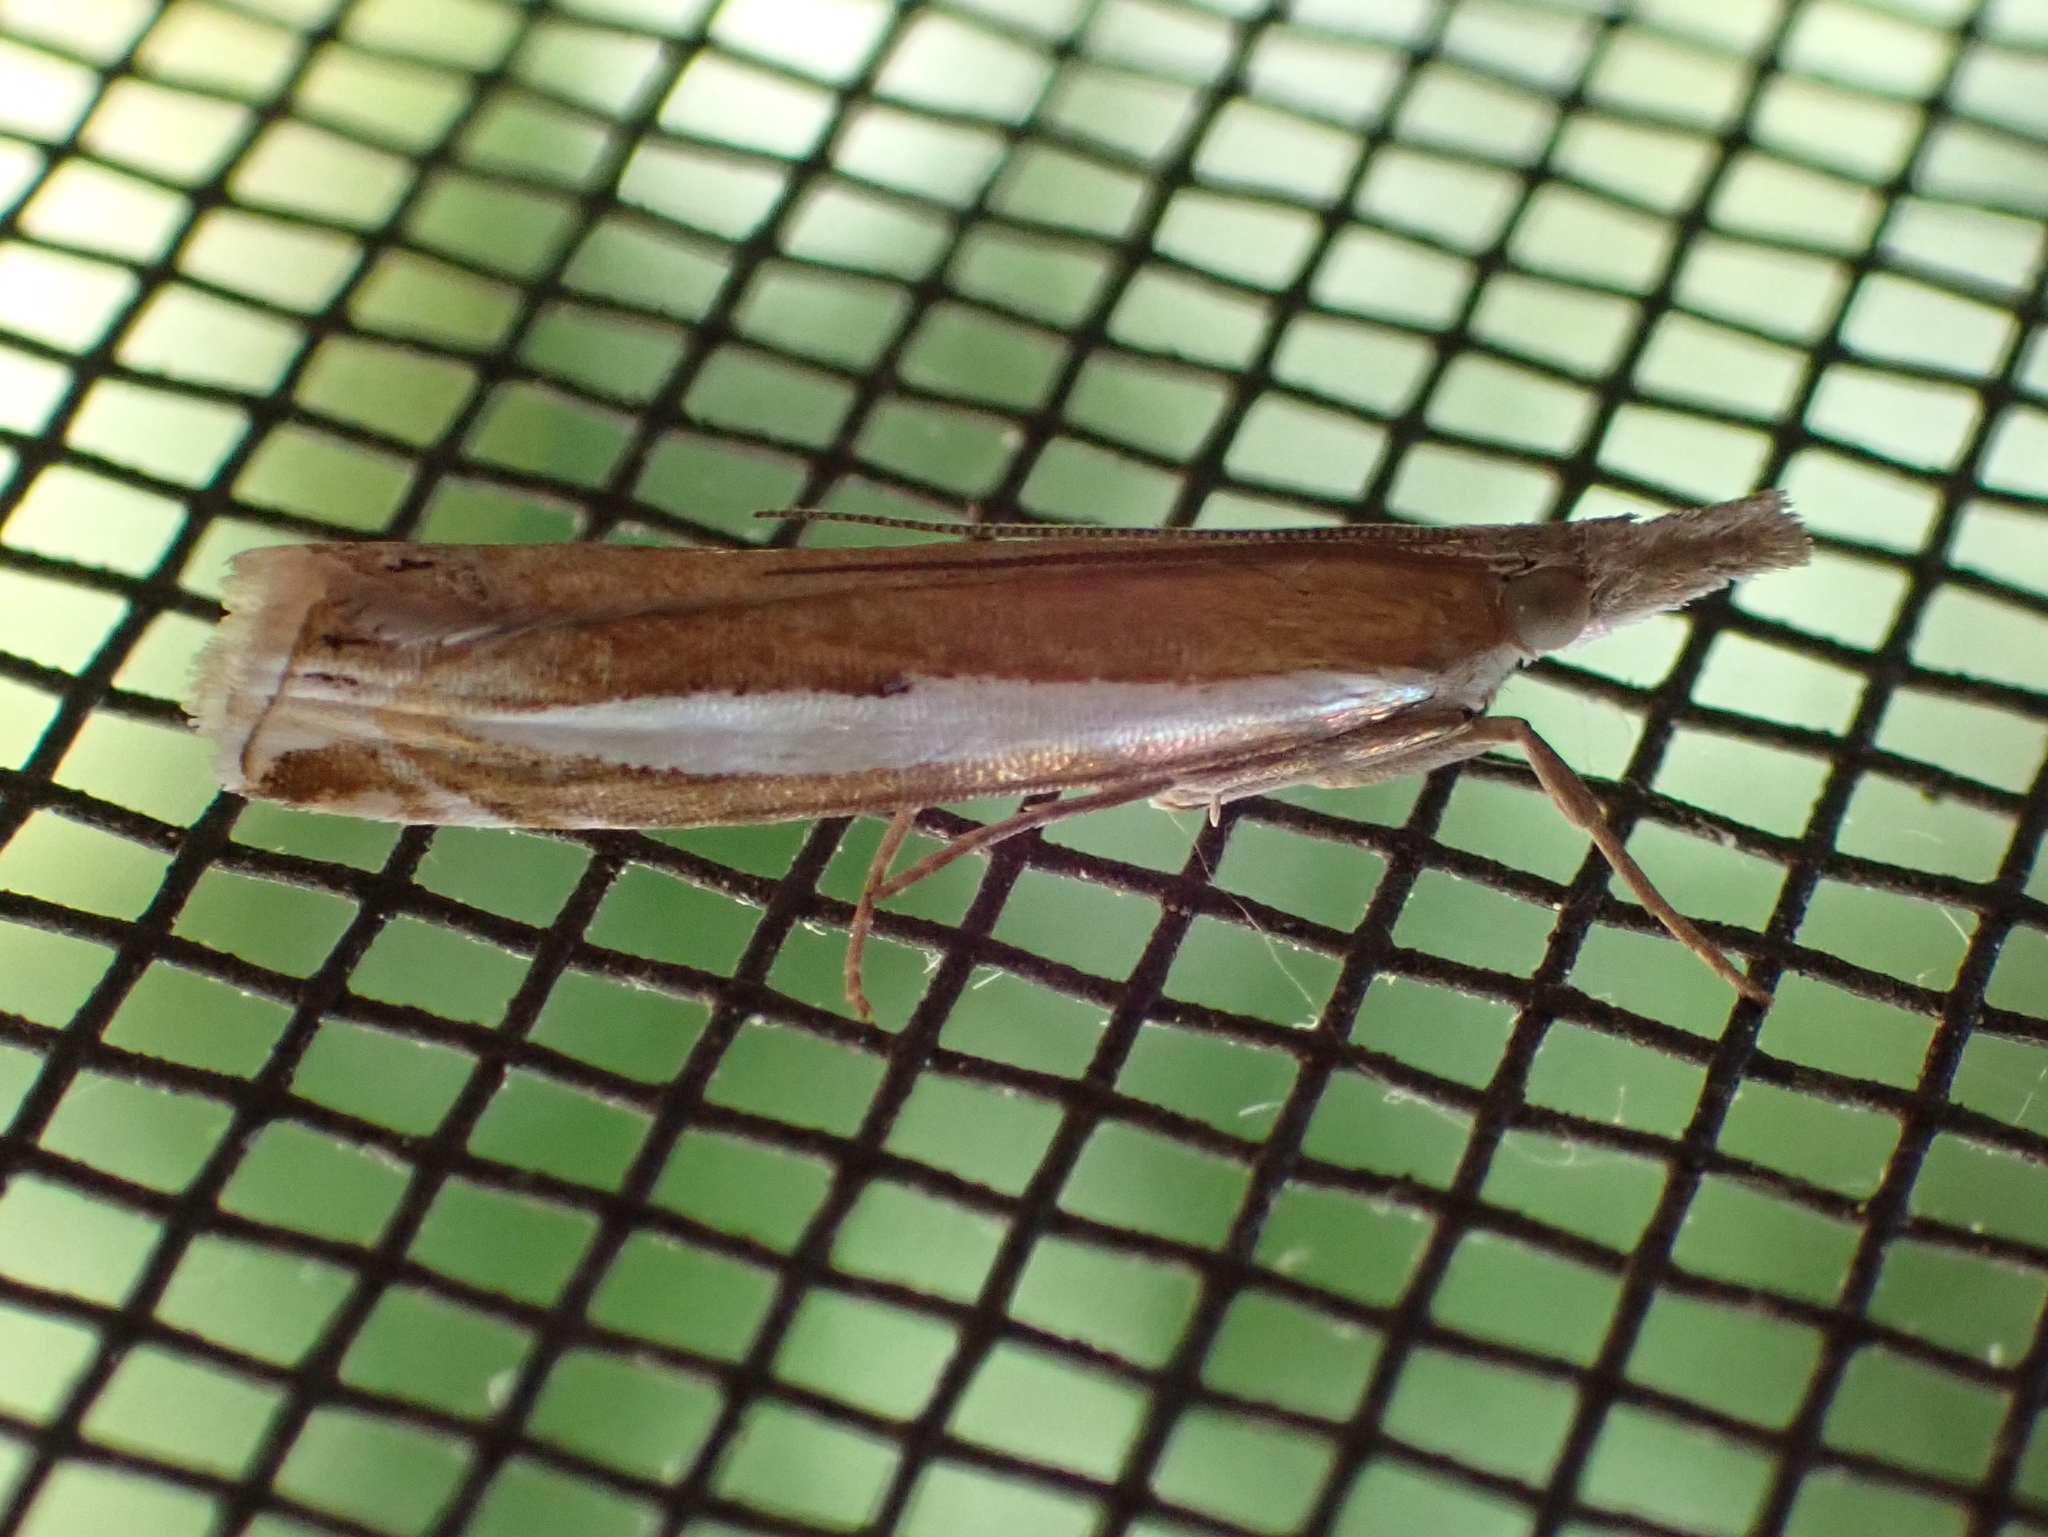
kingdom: Animalia
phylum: Arthropoda
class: Insecta
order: Lepidoptera
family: Crambidae
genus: Crambus
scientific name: Crambus praefectellus
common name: Common grass-veneer
